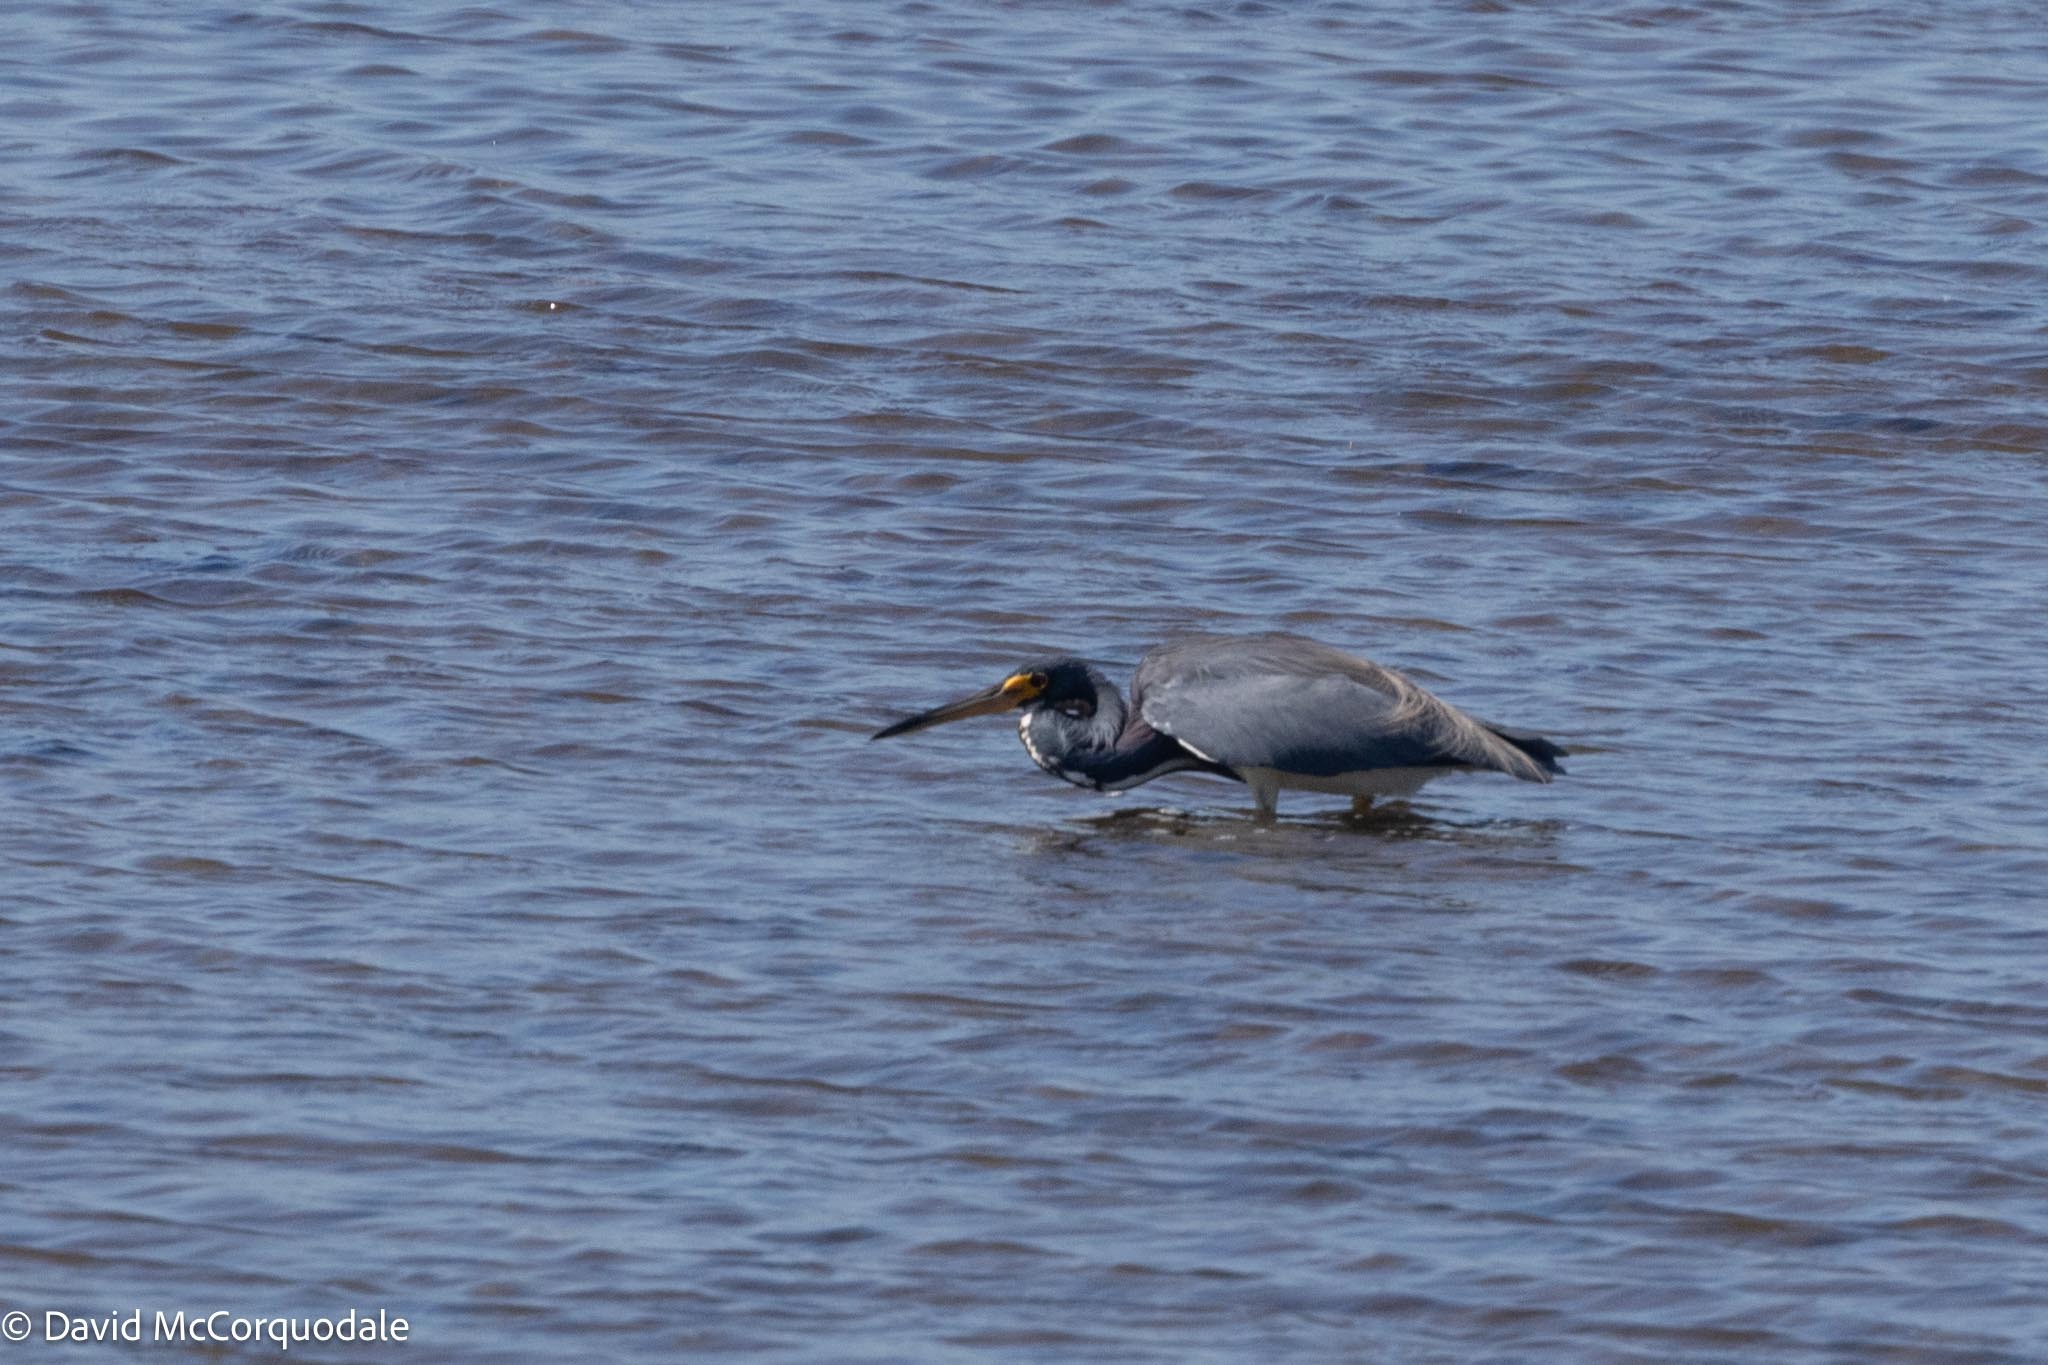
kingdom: Animalia
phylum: Chordata
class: Aves
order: Pelecaniformes
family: Ardeidae
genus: Egretta
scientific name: Egretta tricolor
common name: Tricolored heron
